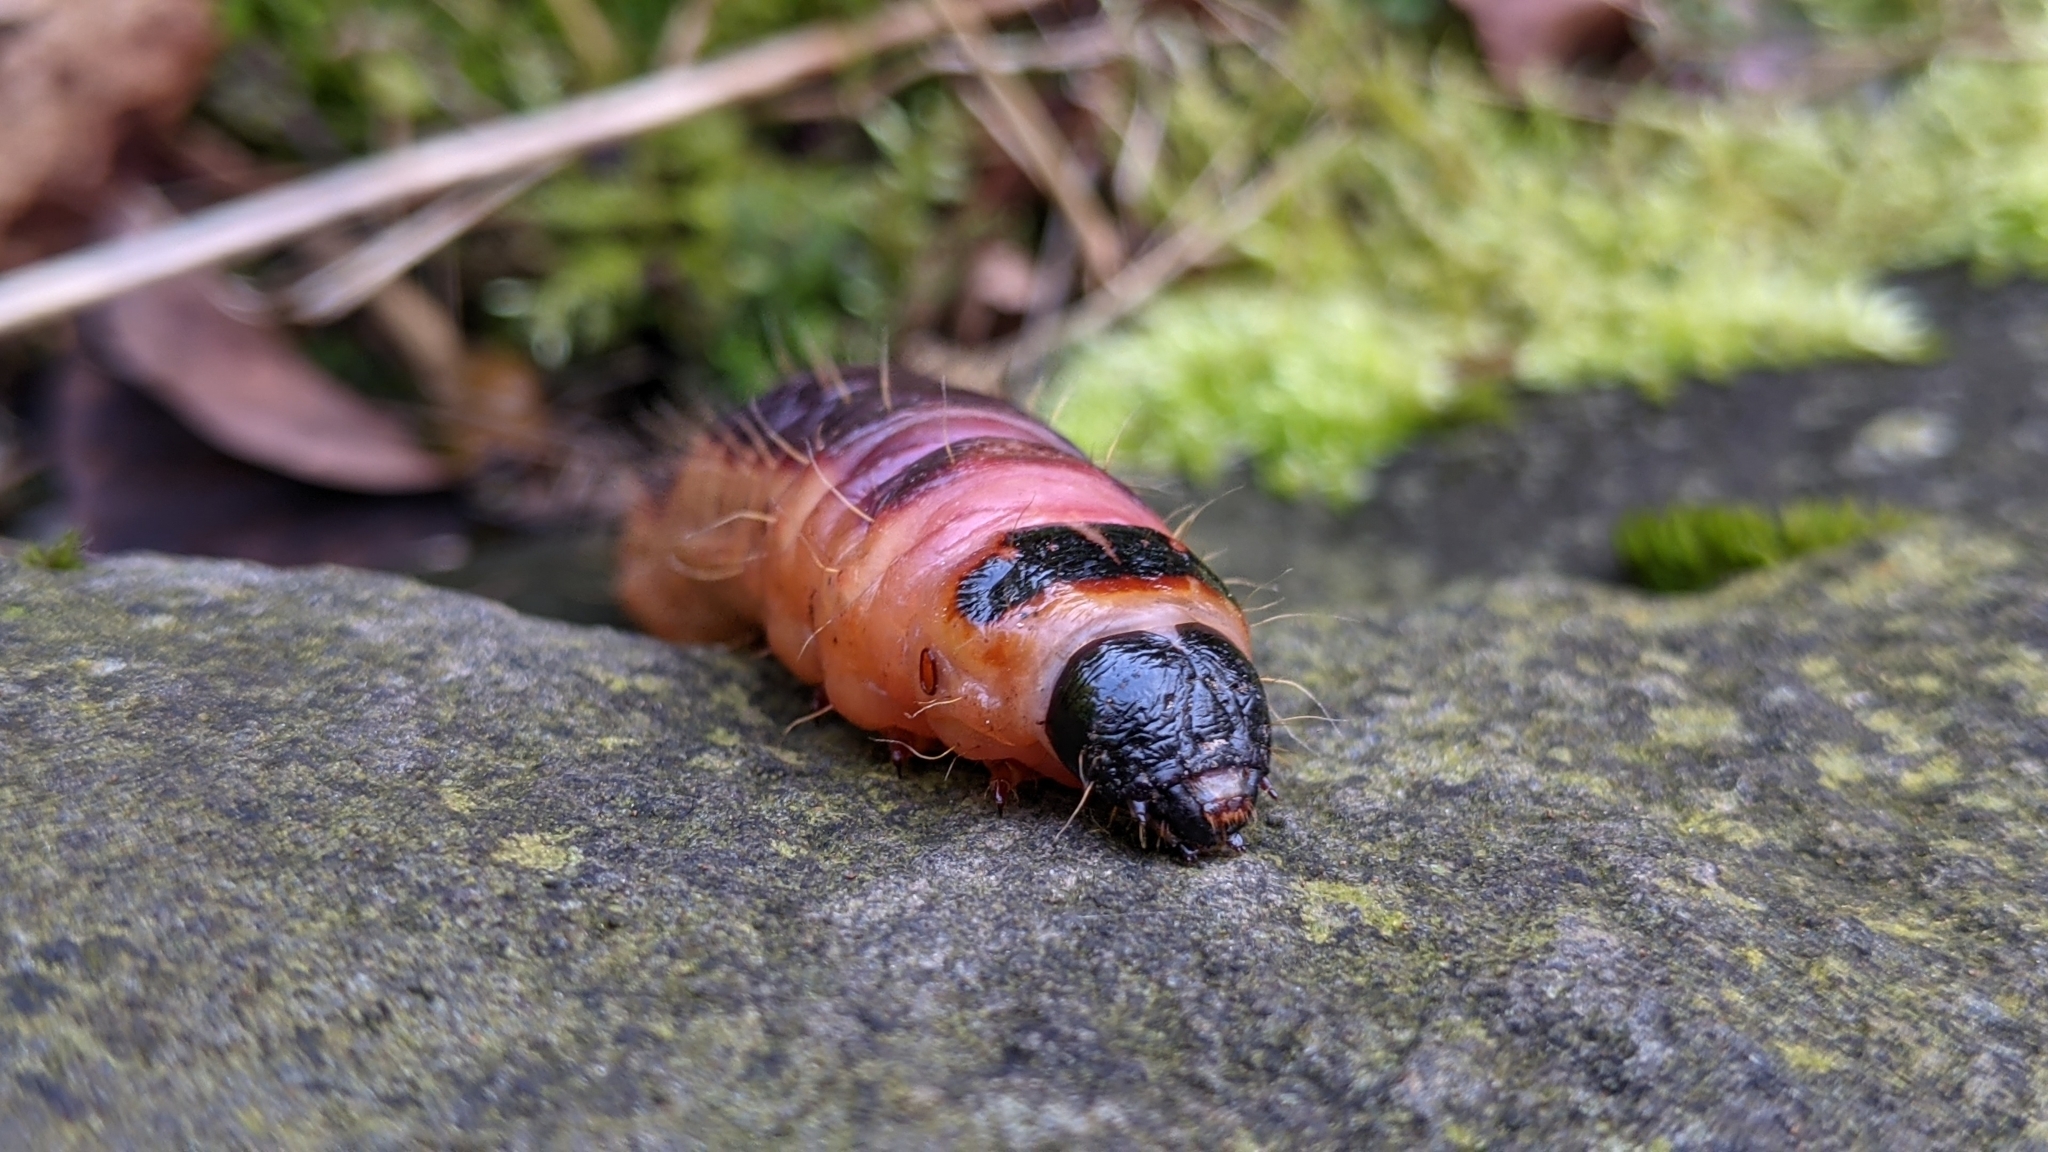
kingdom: Animalia
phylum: Arthropoda
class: Insecta
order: Lepidoptera
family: Cossidae
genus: Cossus
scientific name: Cossus cossus
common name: Goat moth
